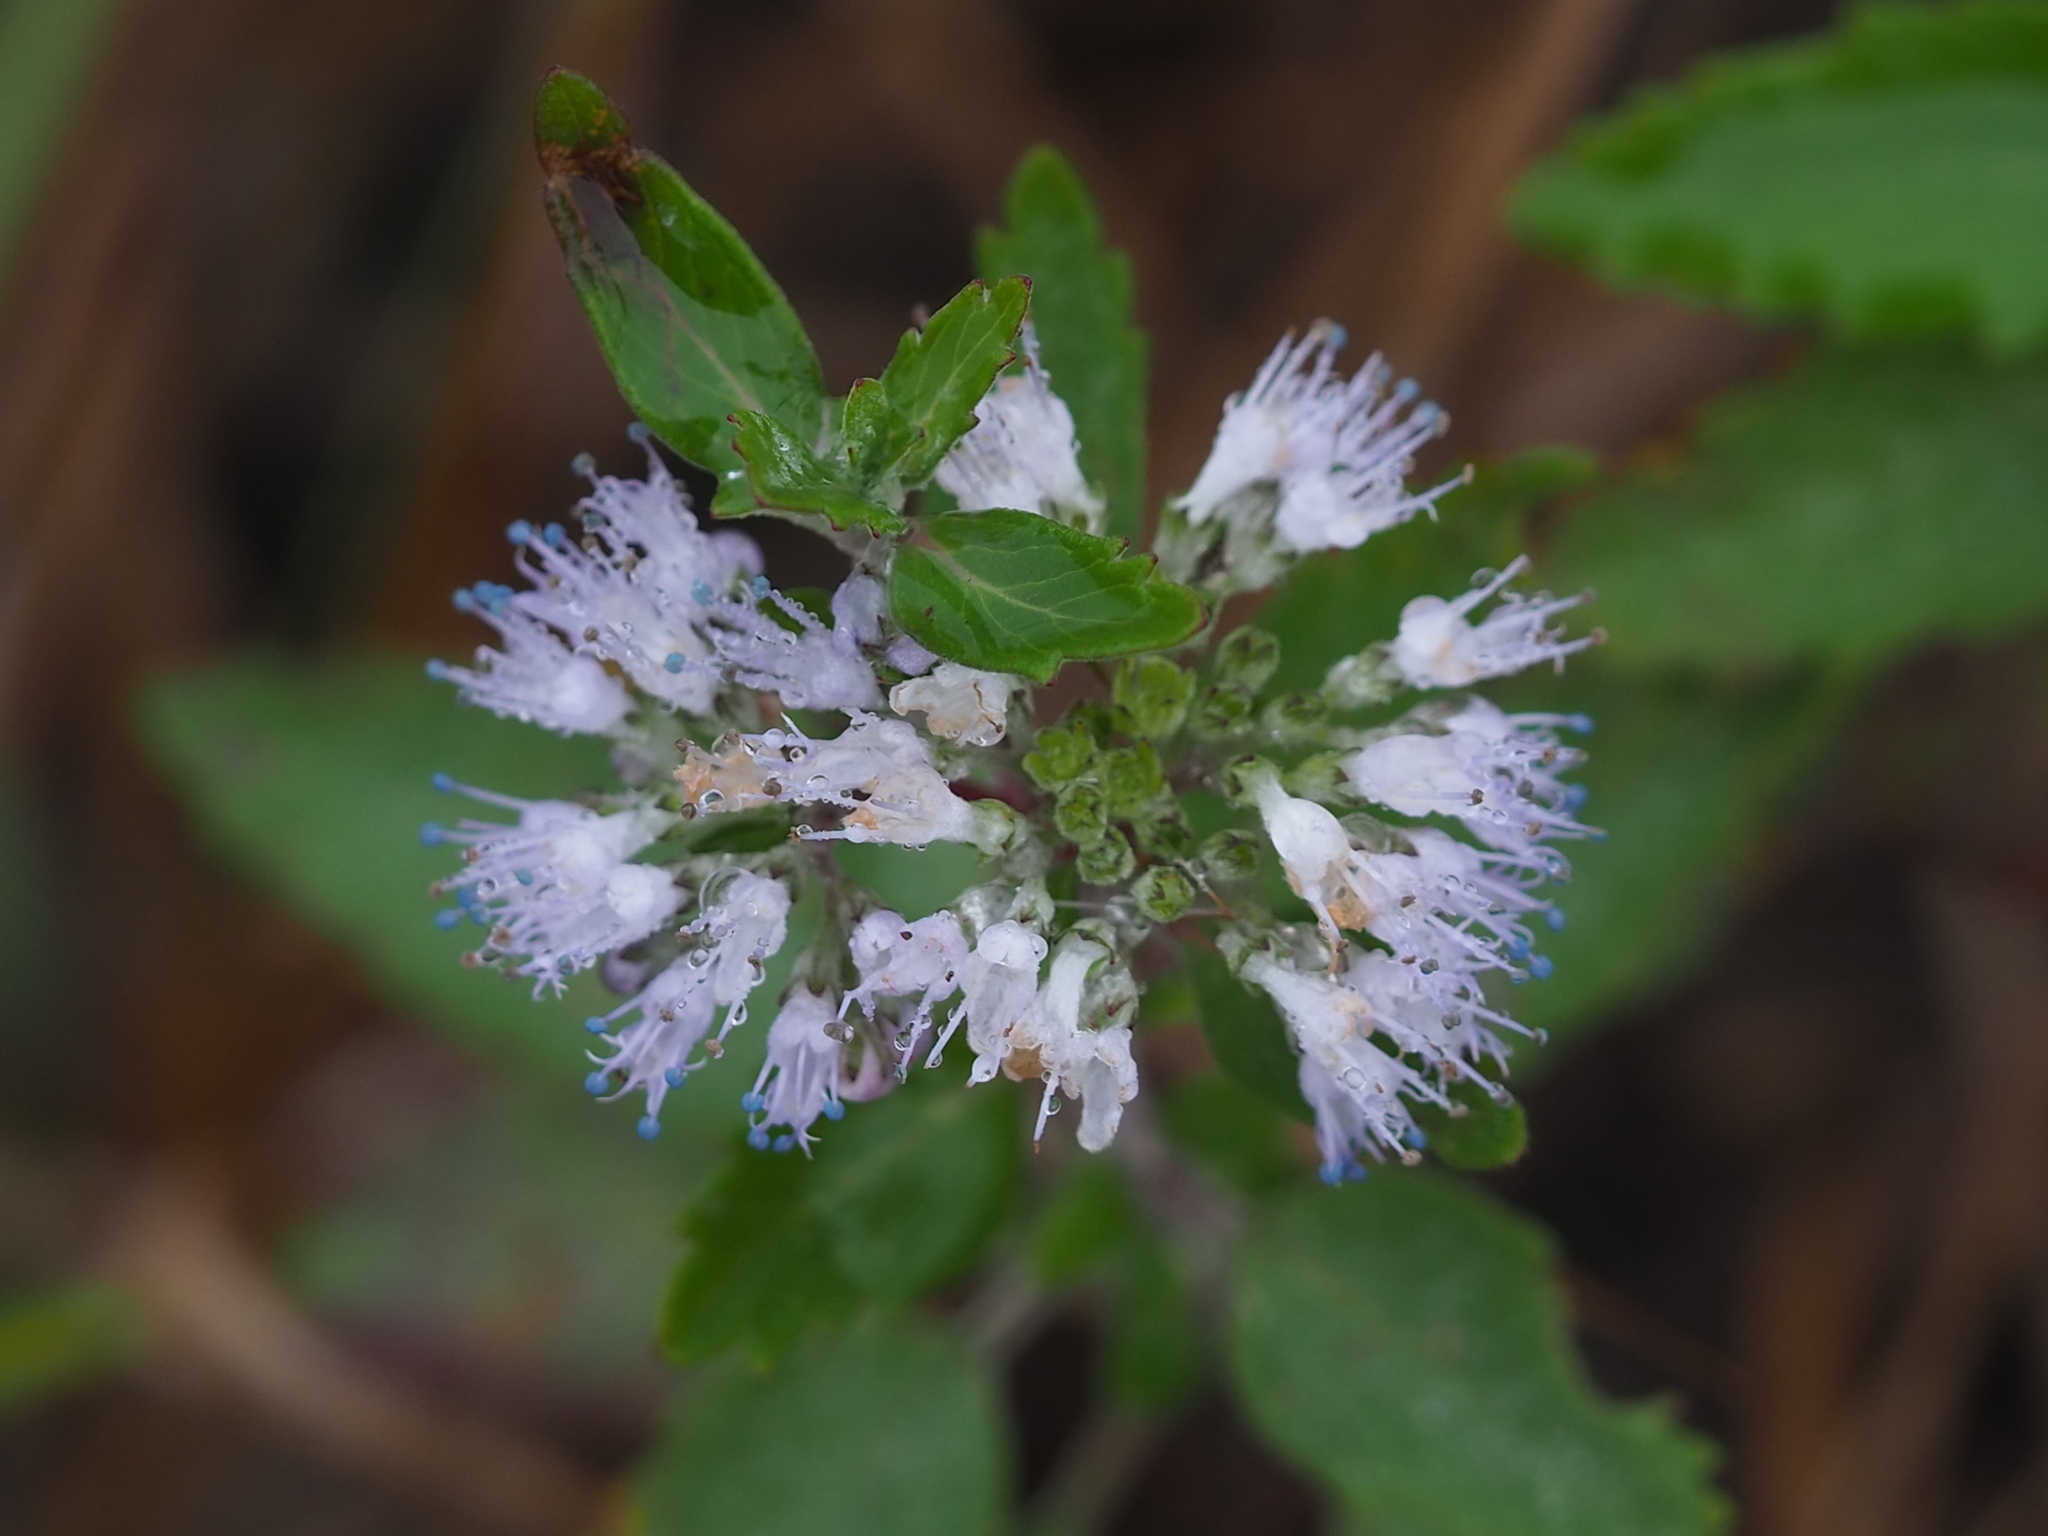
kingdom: Plantae
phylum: Tracheophyta
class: Magnoliopsida
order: Lamiales
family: Lamiaceae
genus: Caryopteris
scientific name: Caryopteris incana
